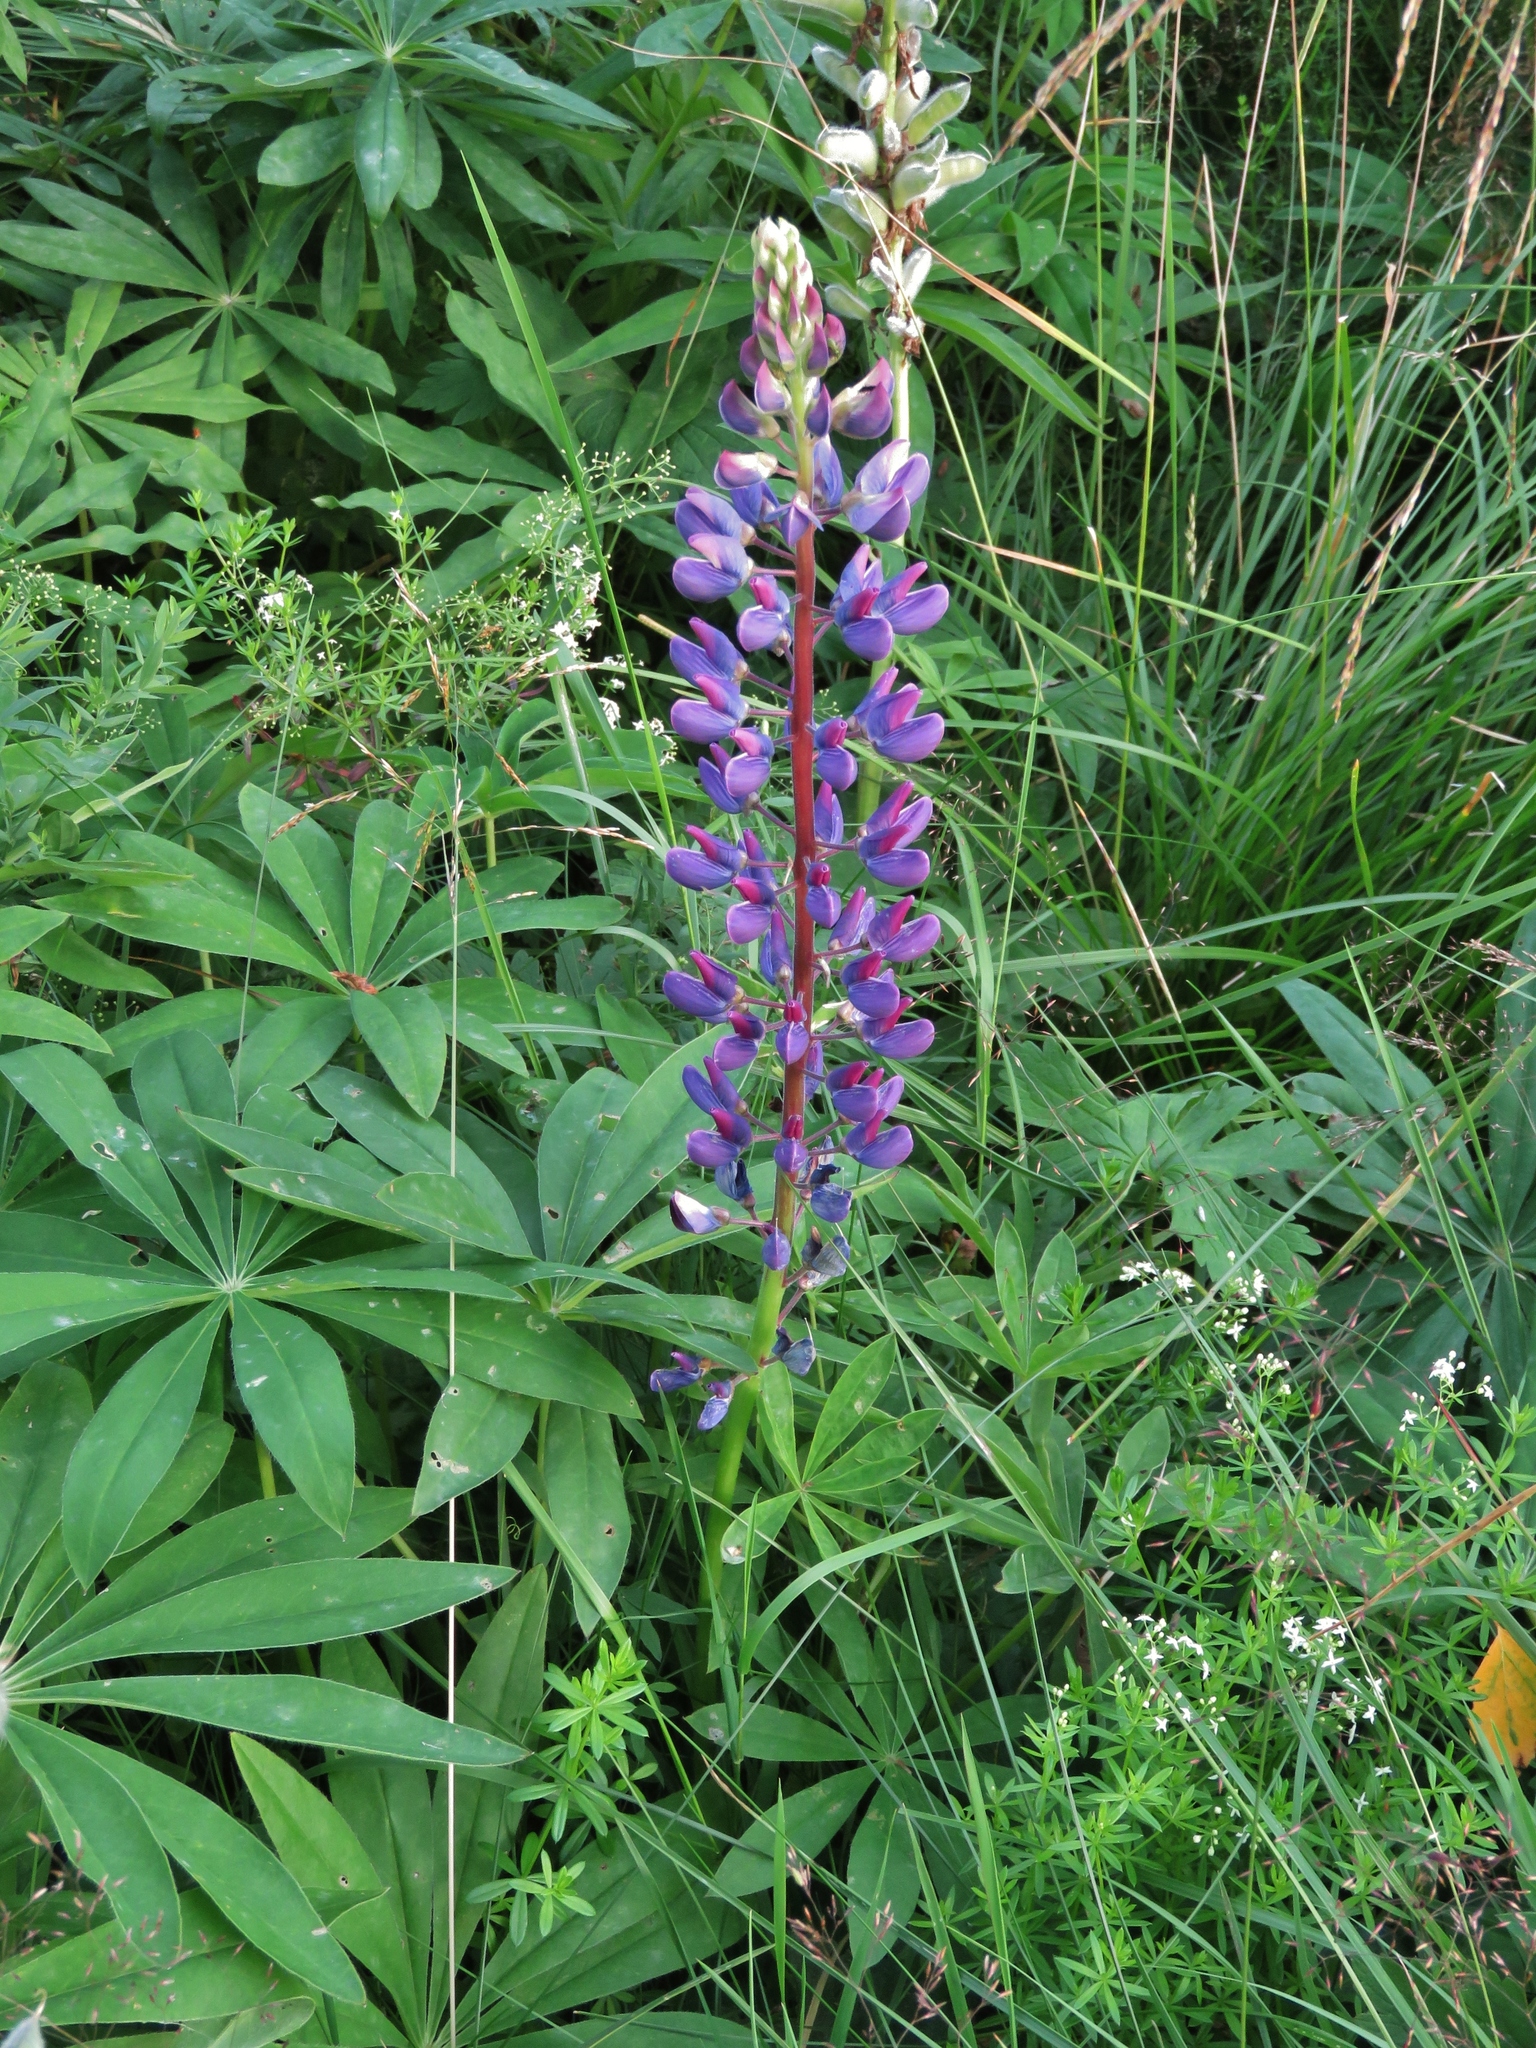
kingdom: Plantae
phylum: Tracheophyta
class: Magnoliopsida
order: Fabales
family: Fabaceae
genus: Lupinus
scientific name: Lupinus polyphyllus
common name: Garden lupin
